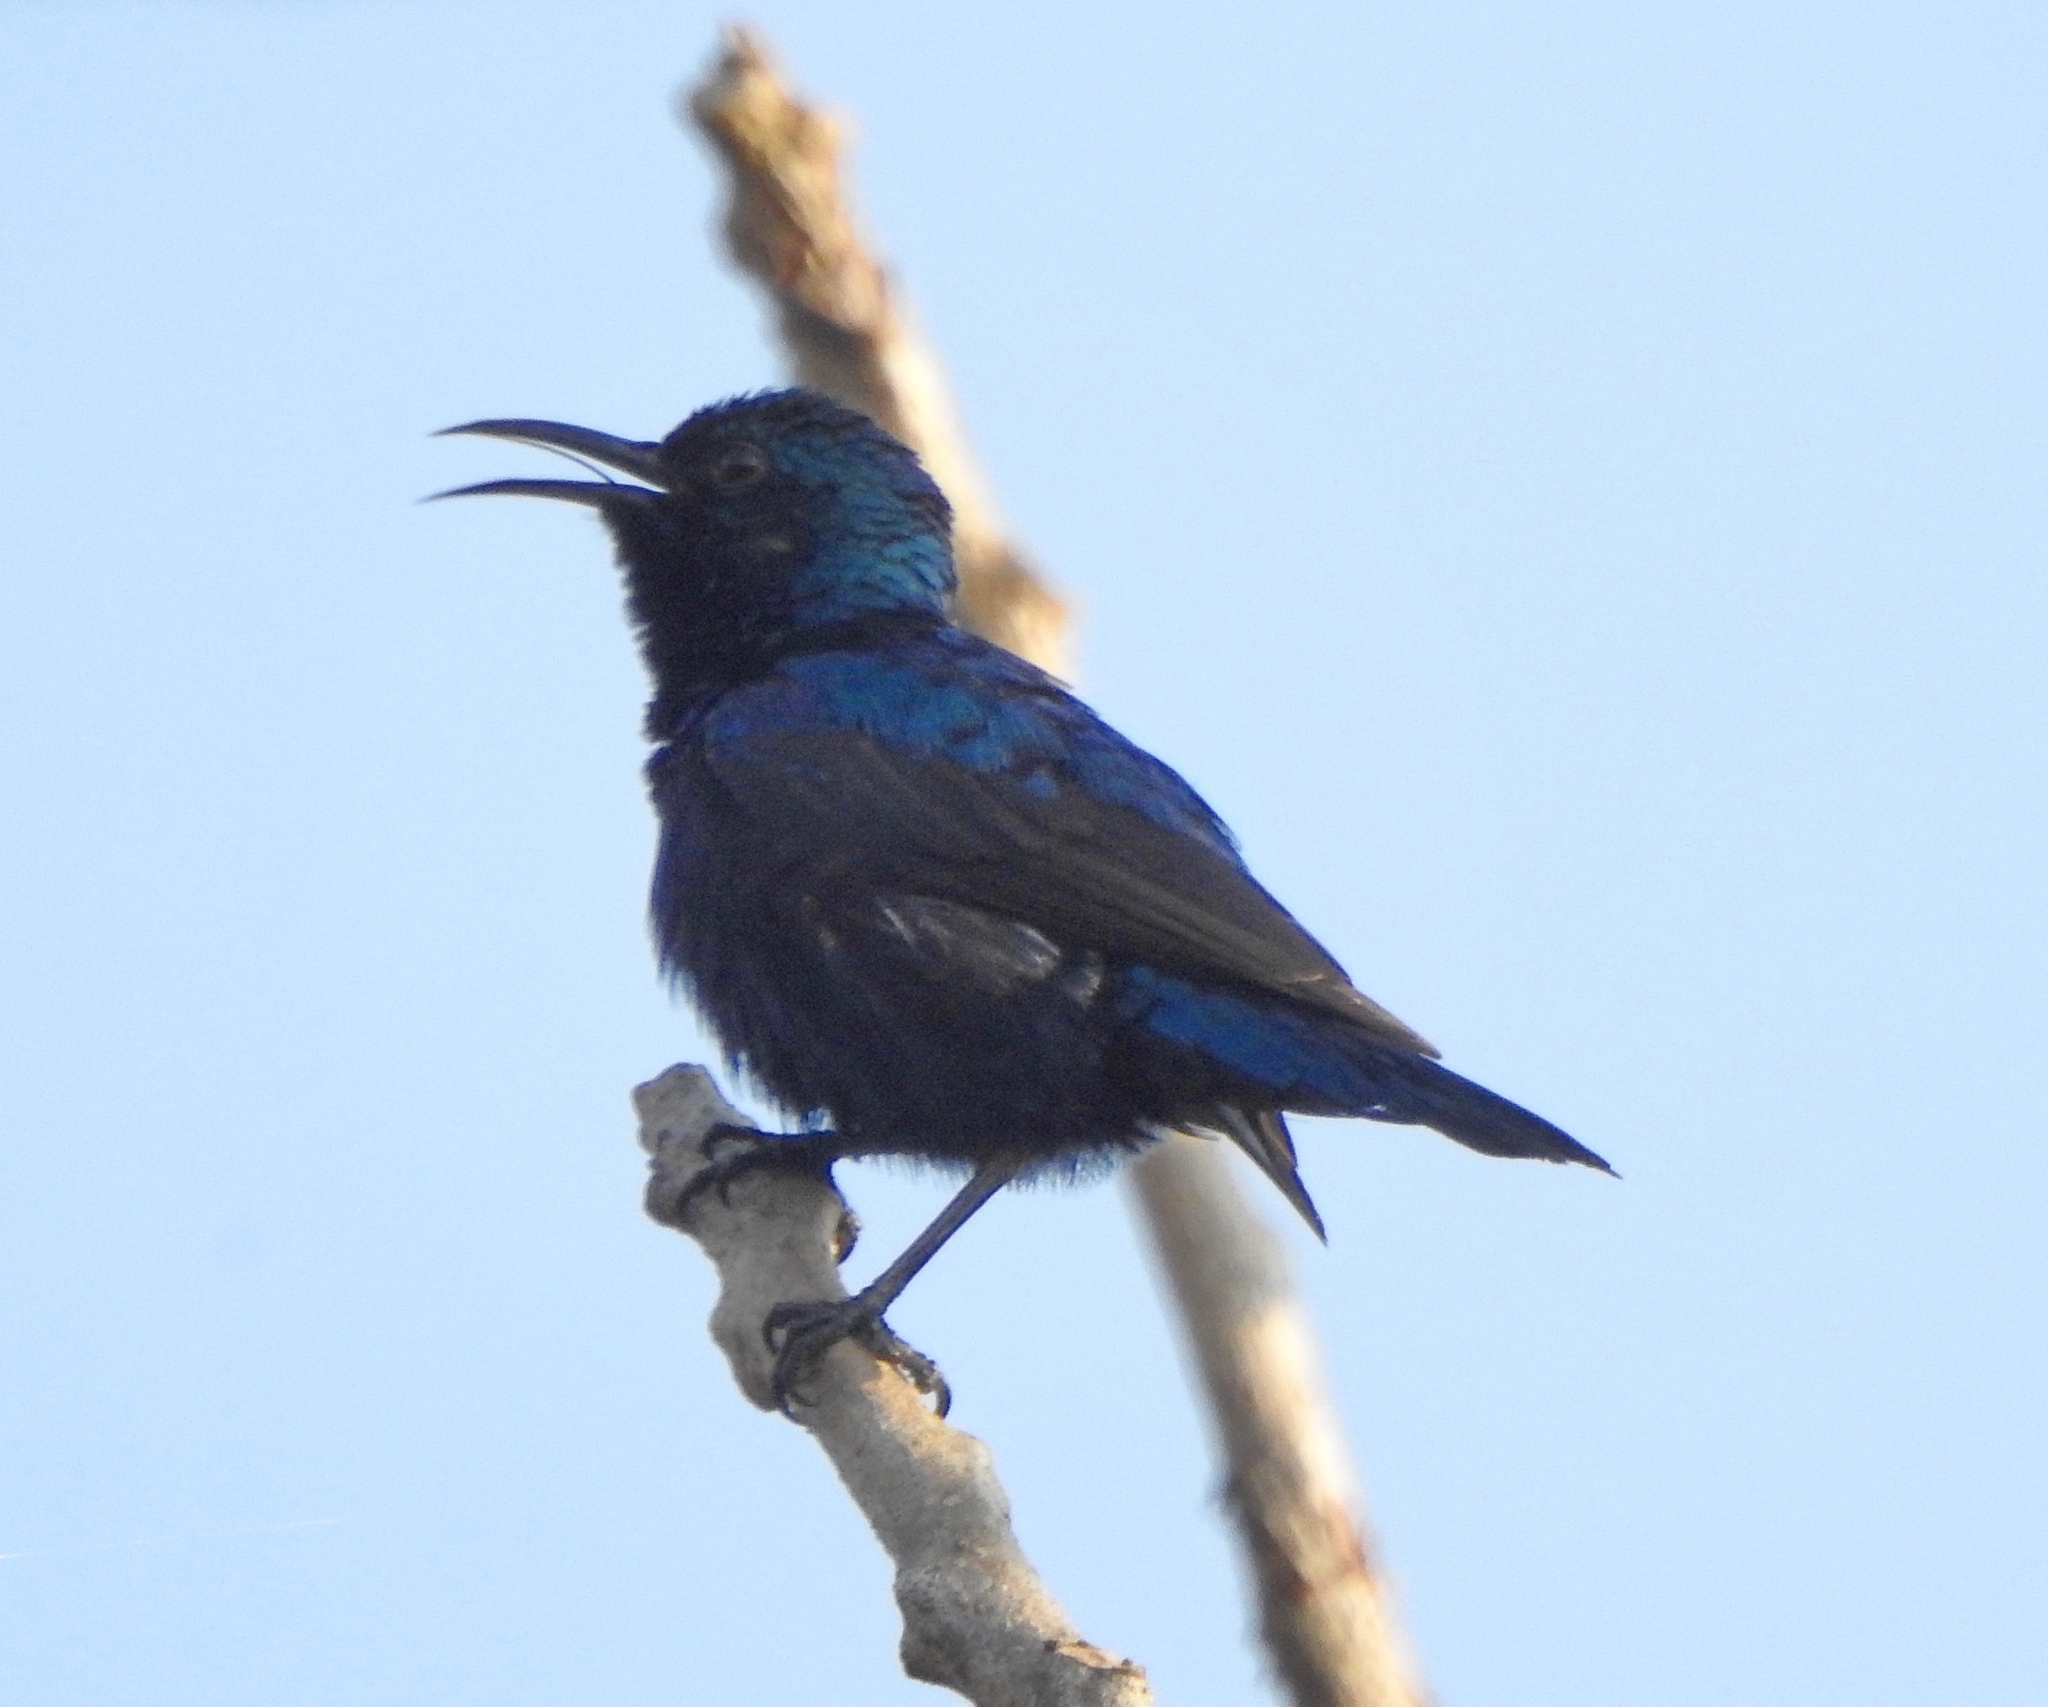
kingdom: Animalia
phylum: Chordata
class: Aves
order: Passeriformes
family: Nectariniidae
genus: Cinnyris
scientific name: Cinnyris asiaticus
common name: Purple sunbird
